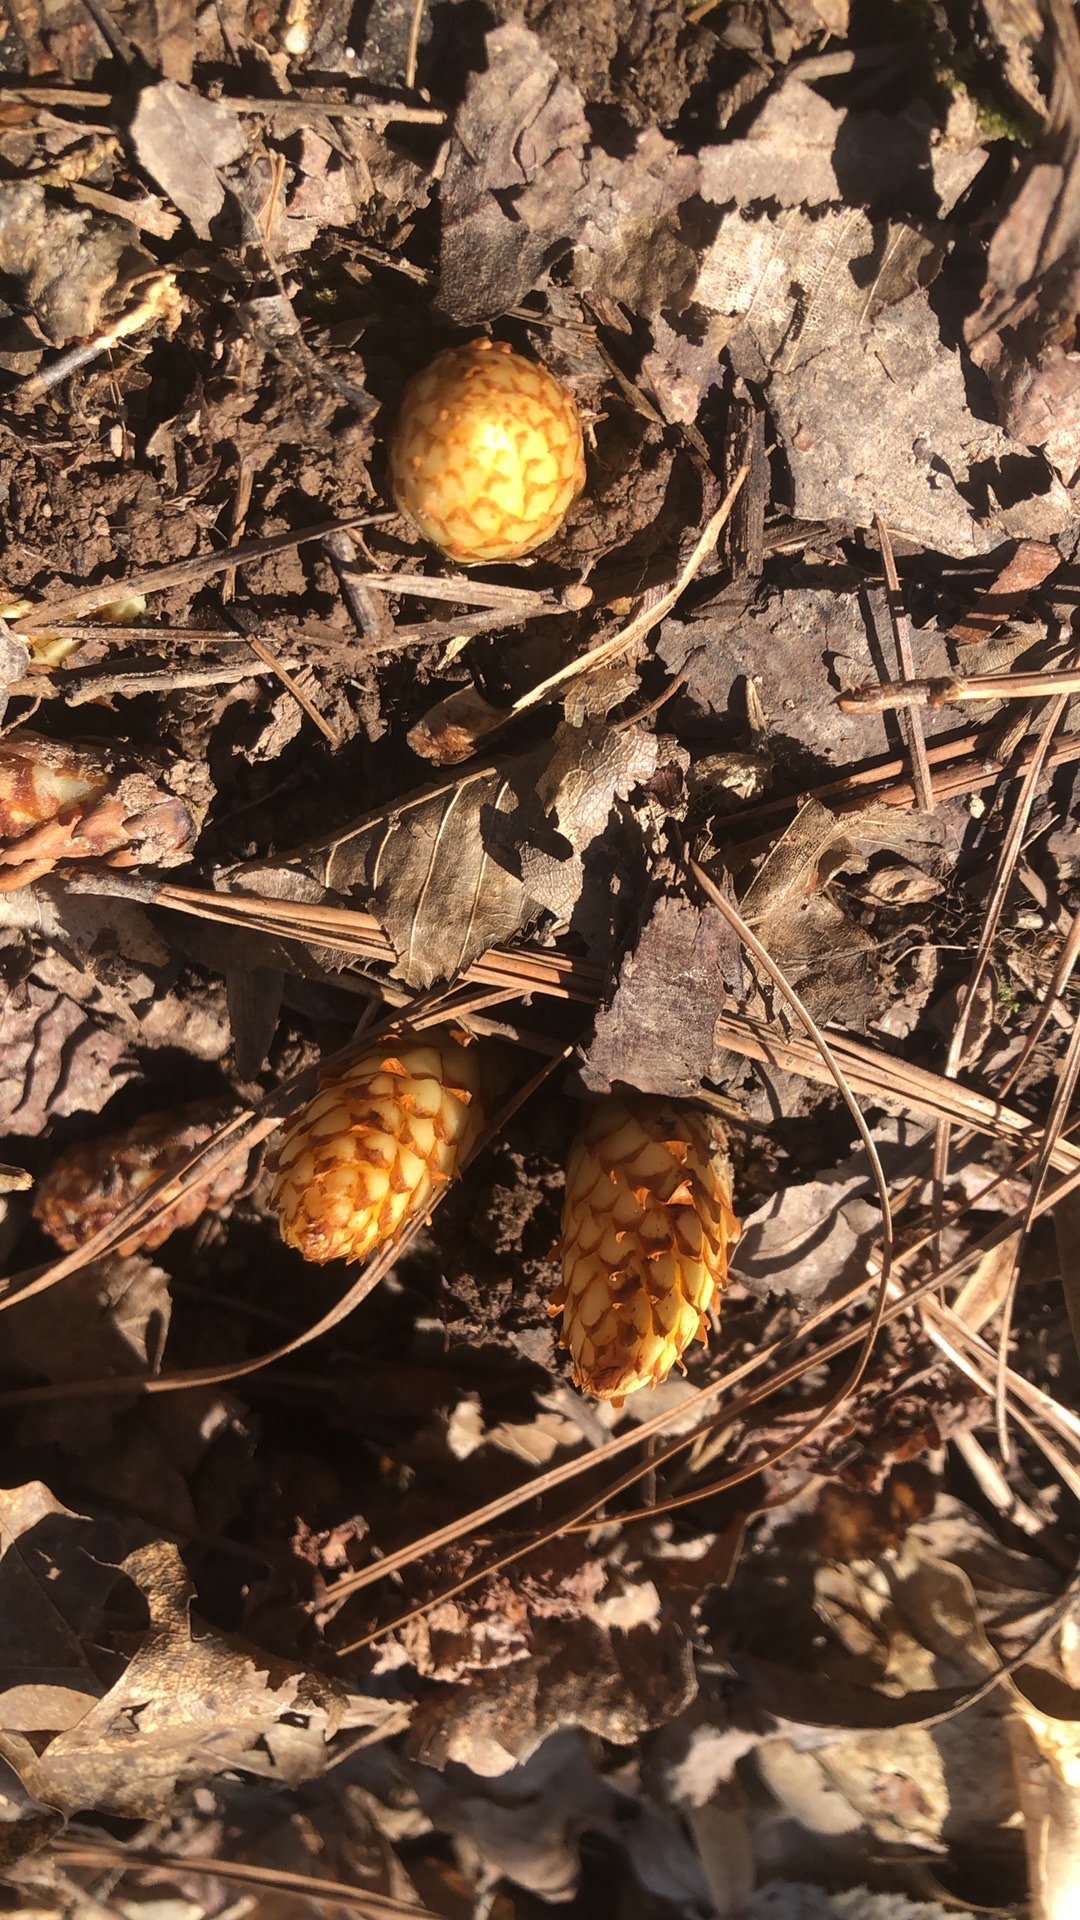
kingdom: Plantae
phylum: Tracheophyta
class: Magnoliopsida
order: Lamiales
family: Orobanchaceae
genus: Conopholis
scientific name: Conopholis americana
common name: American cancer-root
